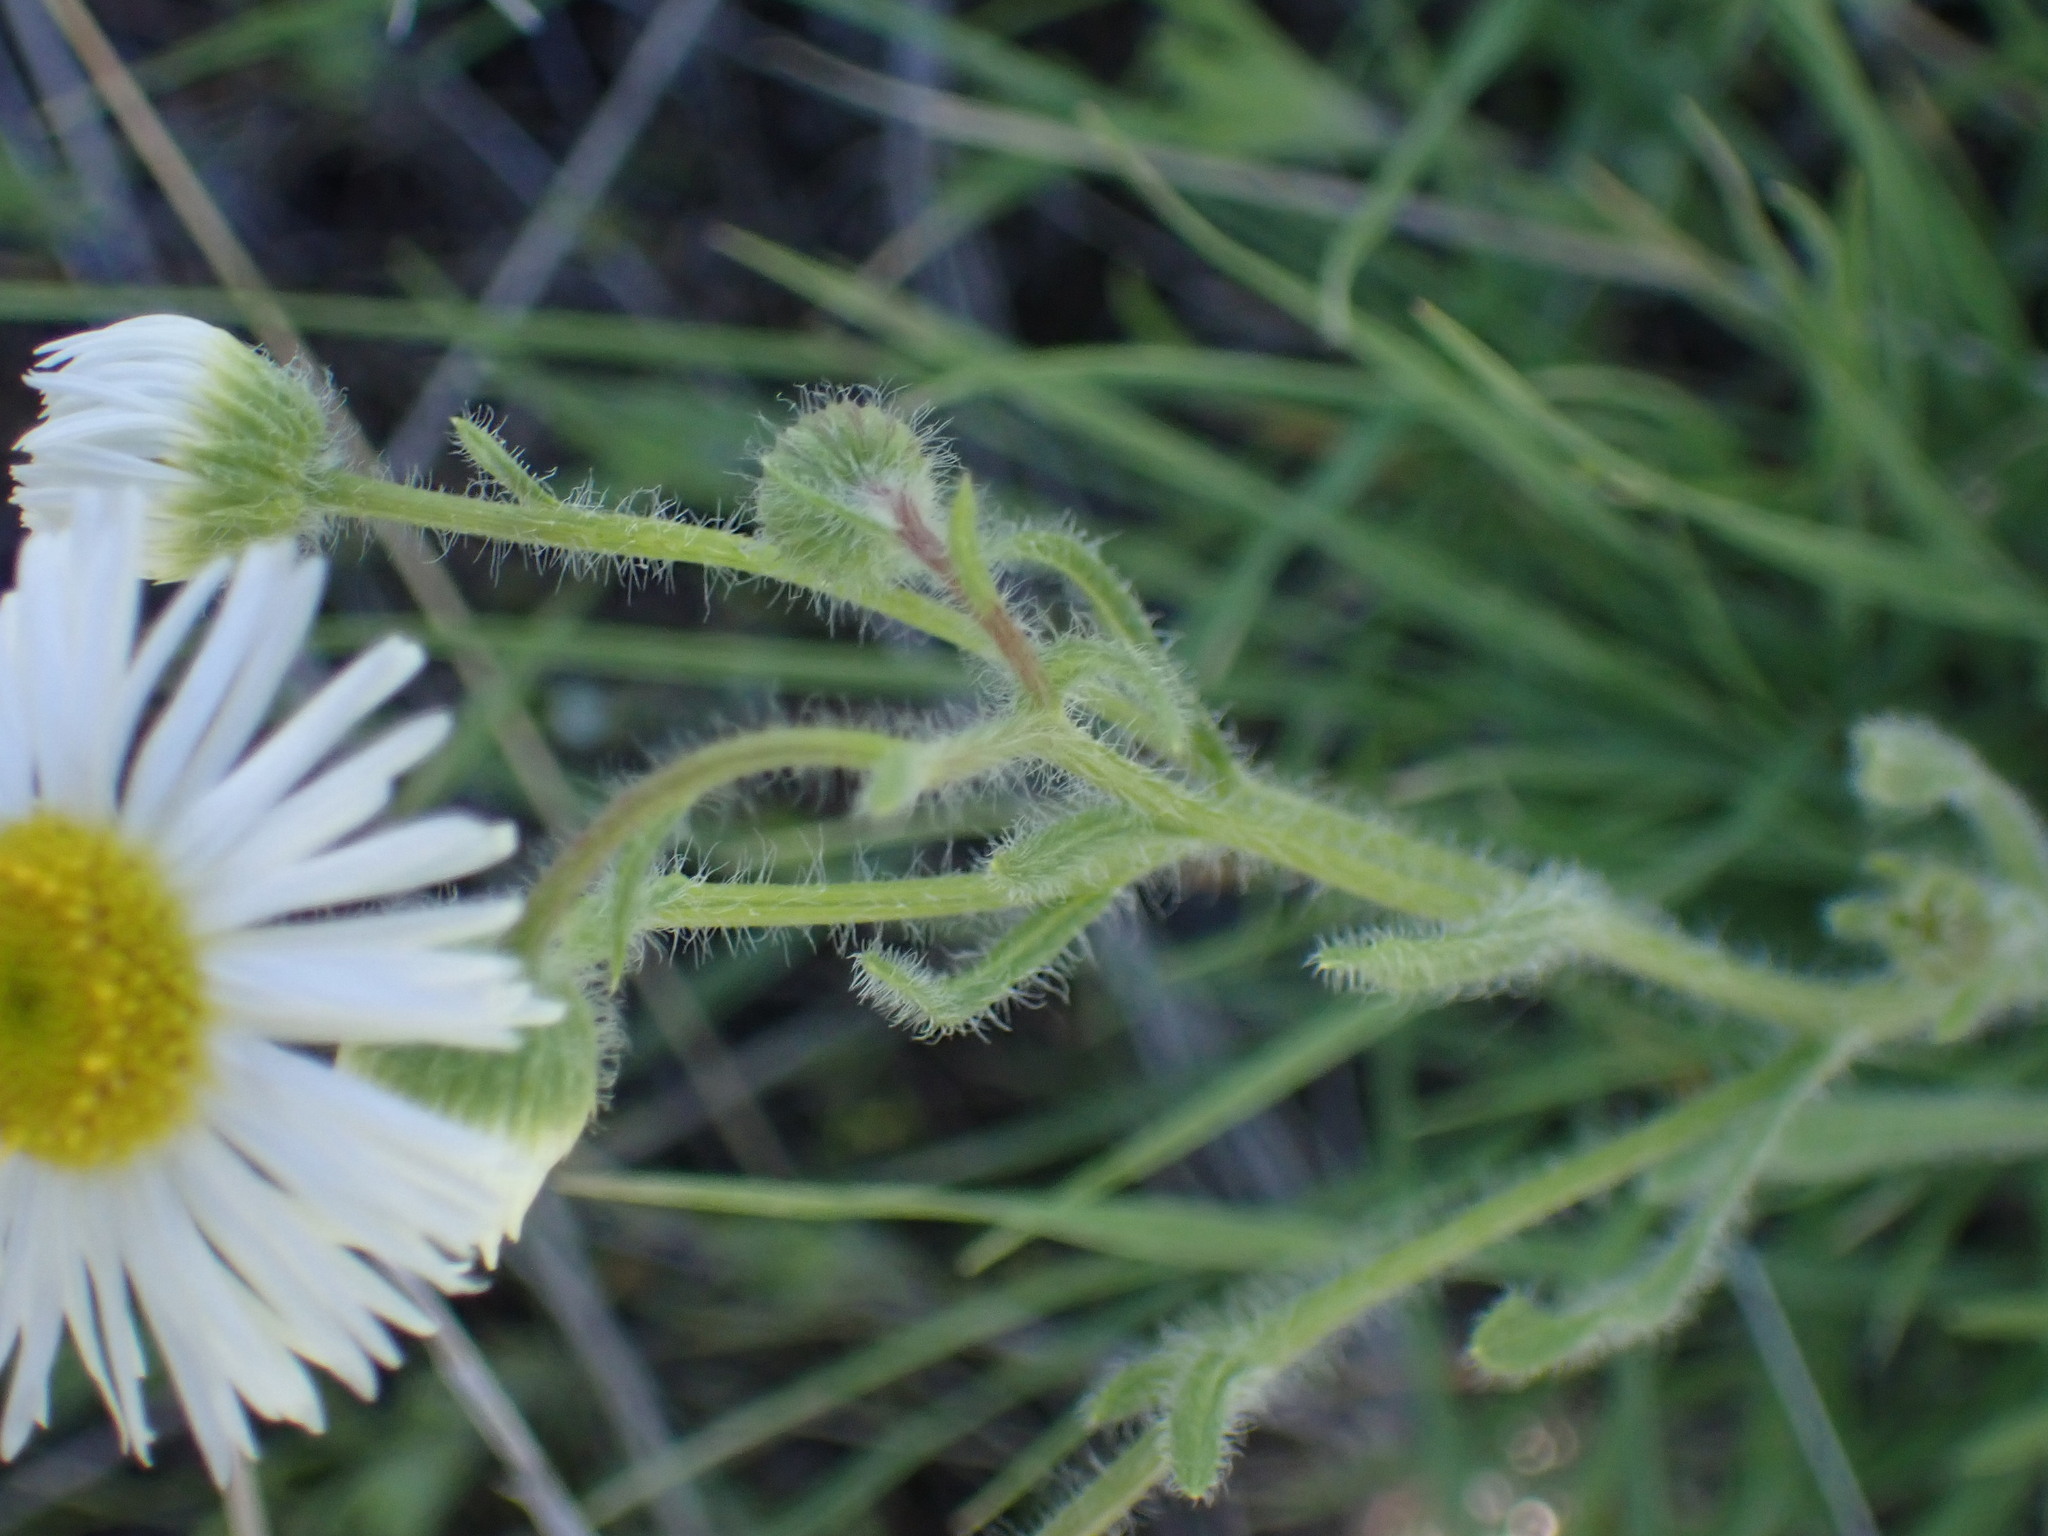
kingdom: Plantae
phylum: Tracheophyta
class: Magnoliopsida
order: Asterales
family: Asteraceae
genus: Erigeron
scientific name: Erigeron pumilus
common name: Shaggy fleabane
